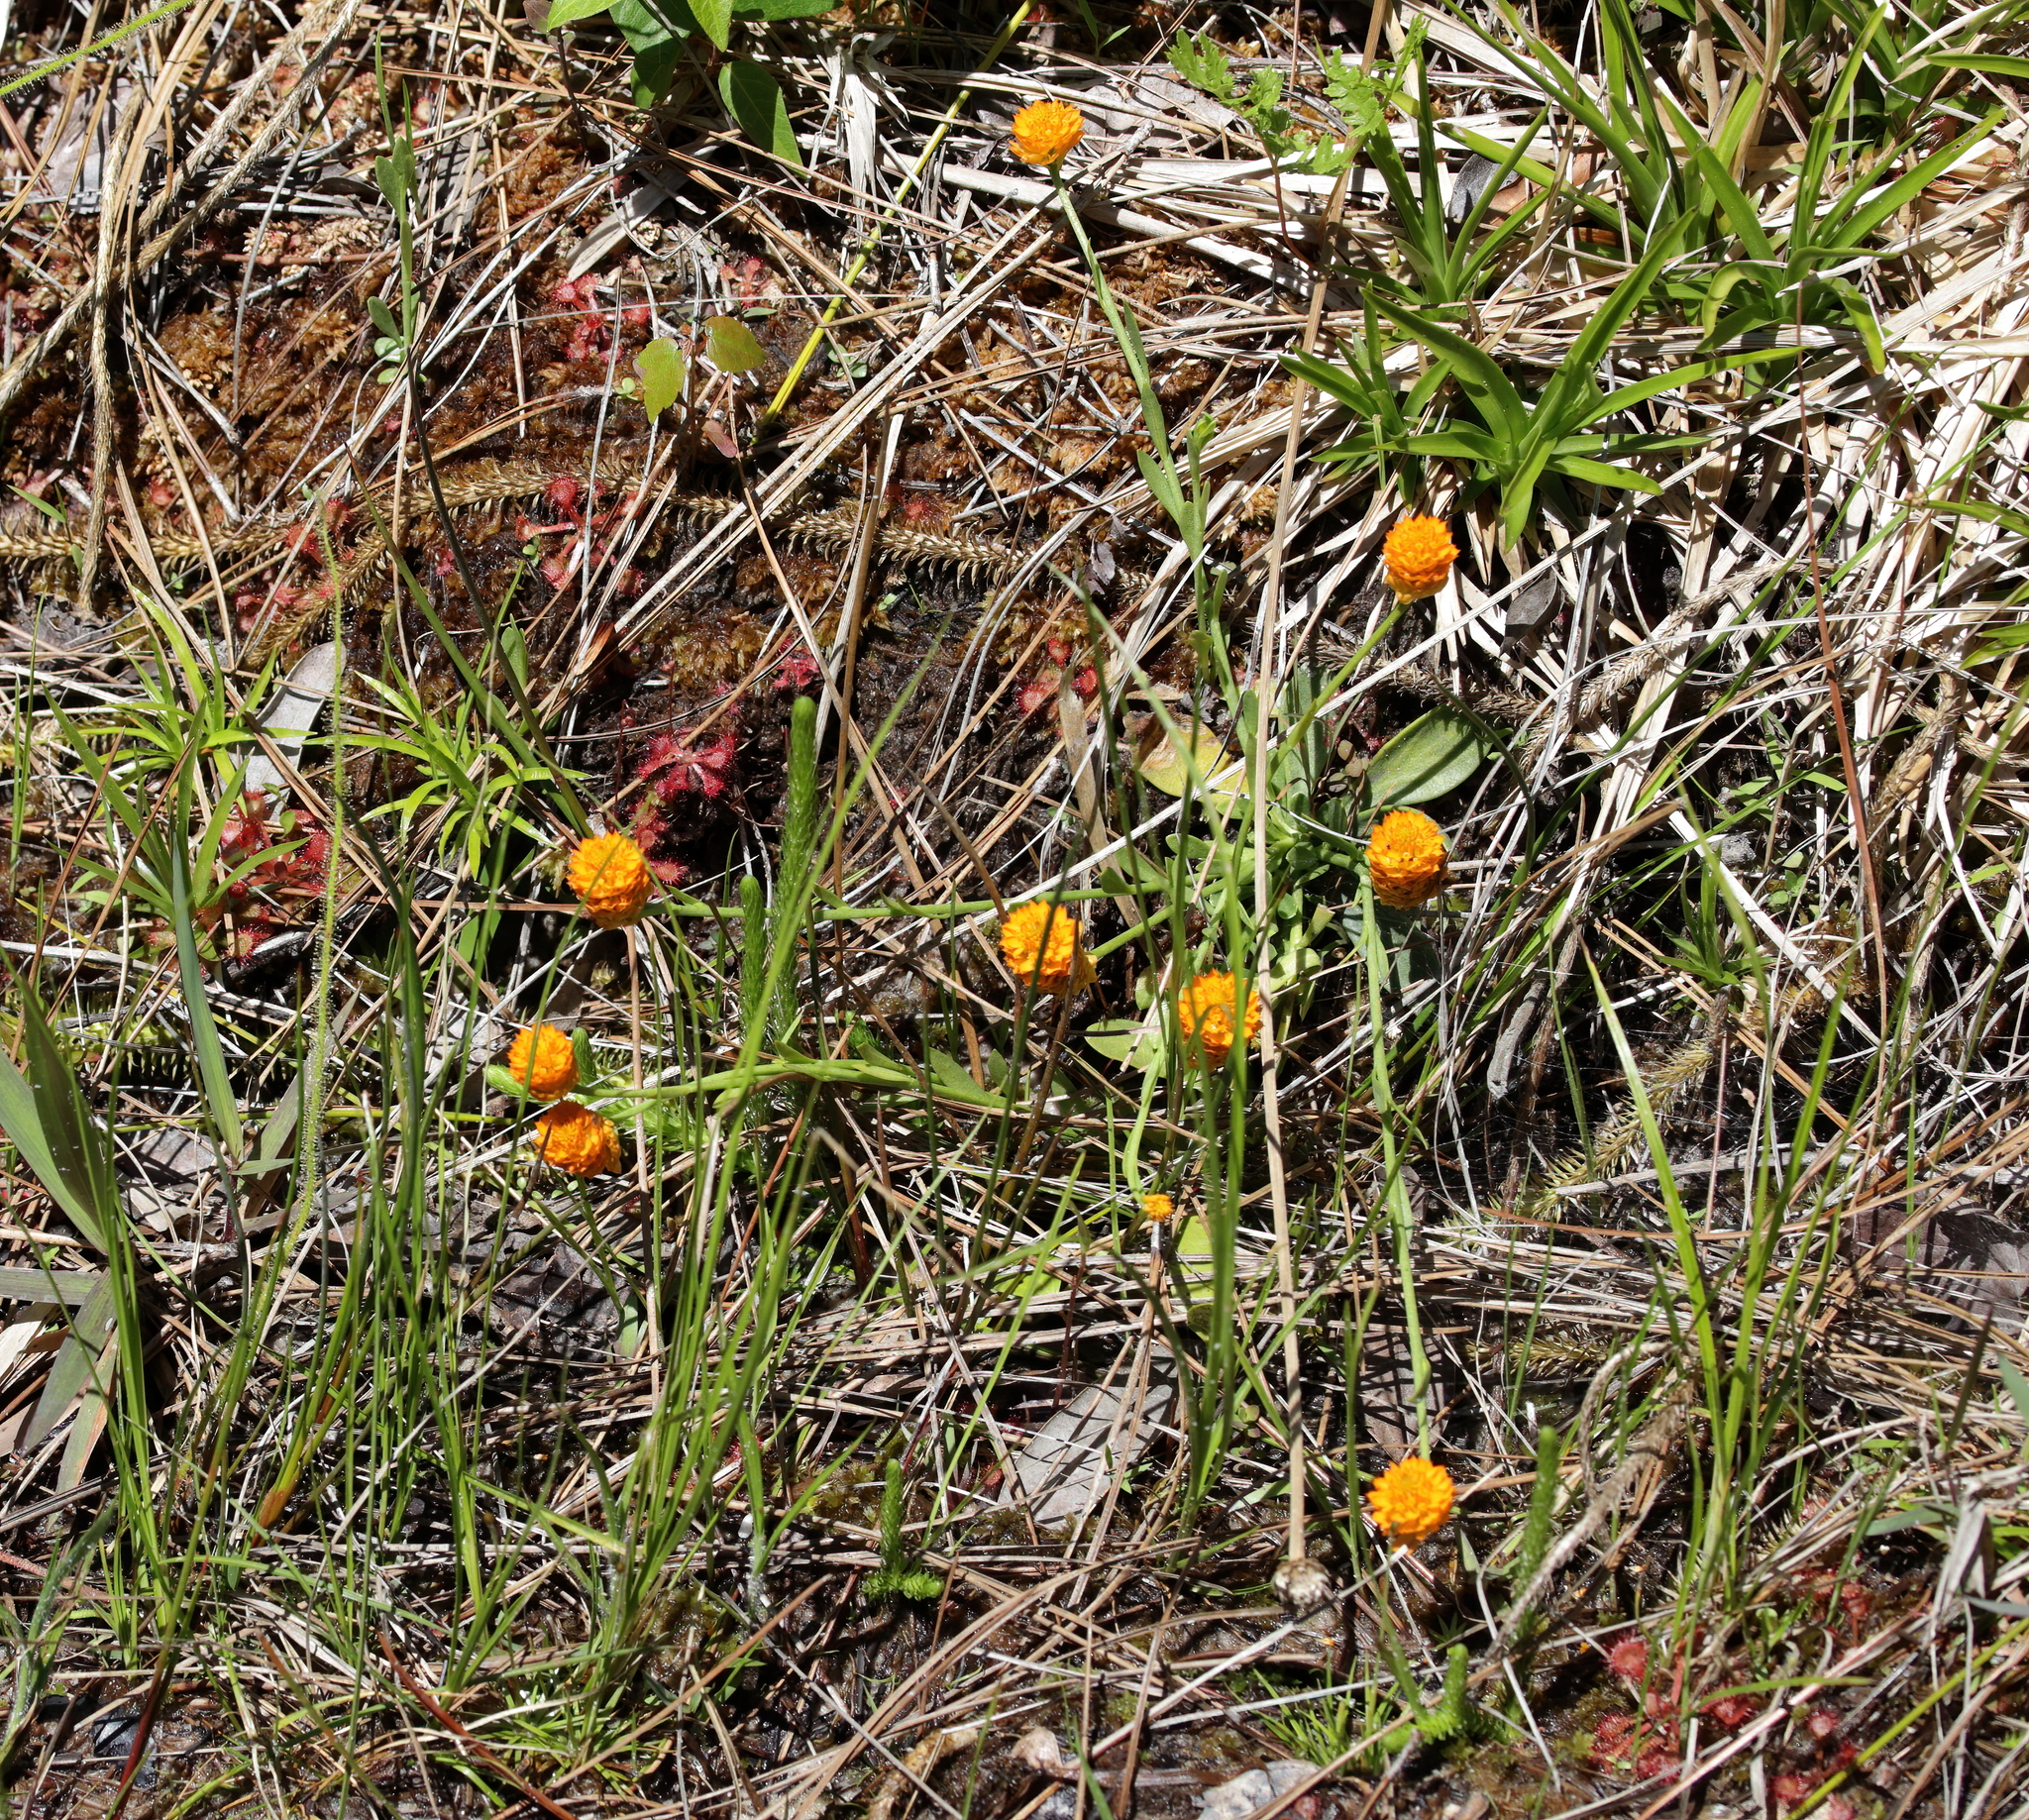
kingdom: Plantae
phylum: Tracheophyta
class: Magnoliopsida
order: Fabales
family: Polygalaceae
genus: Polygala
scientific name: Polygala lutea
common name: Orange milkwort
